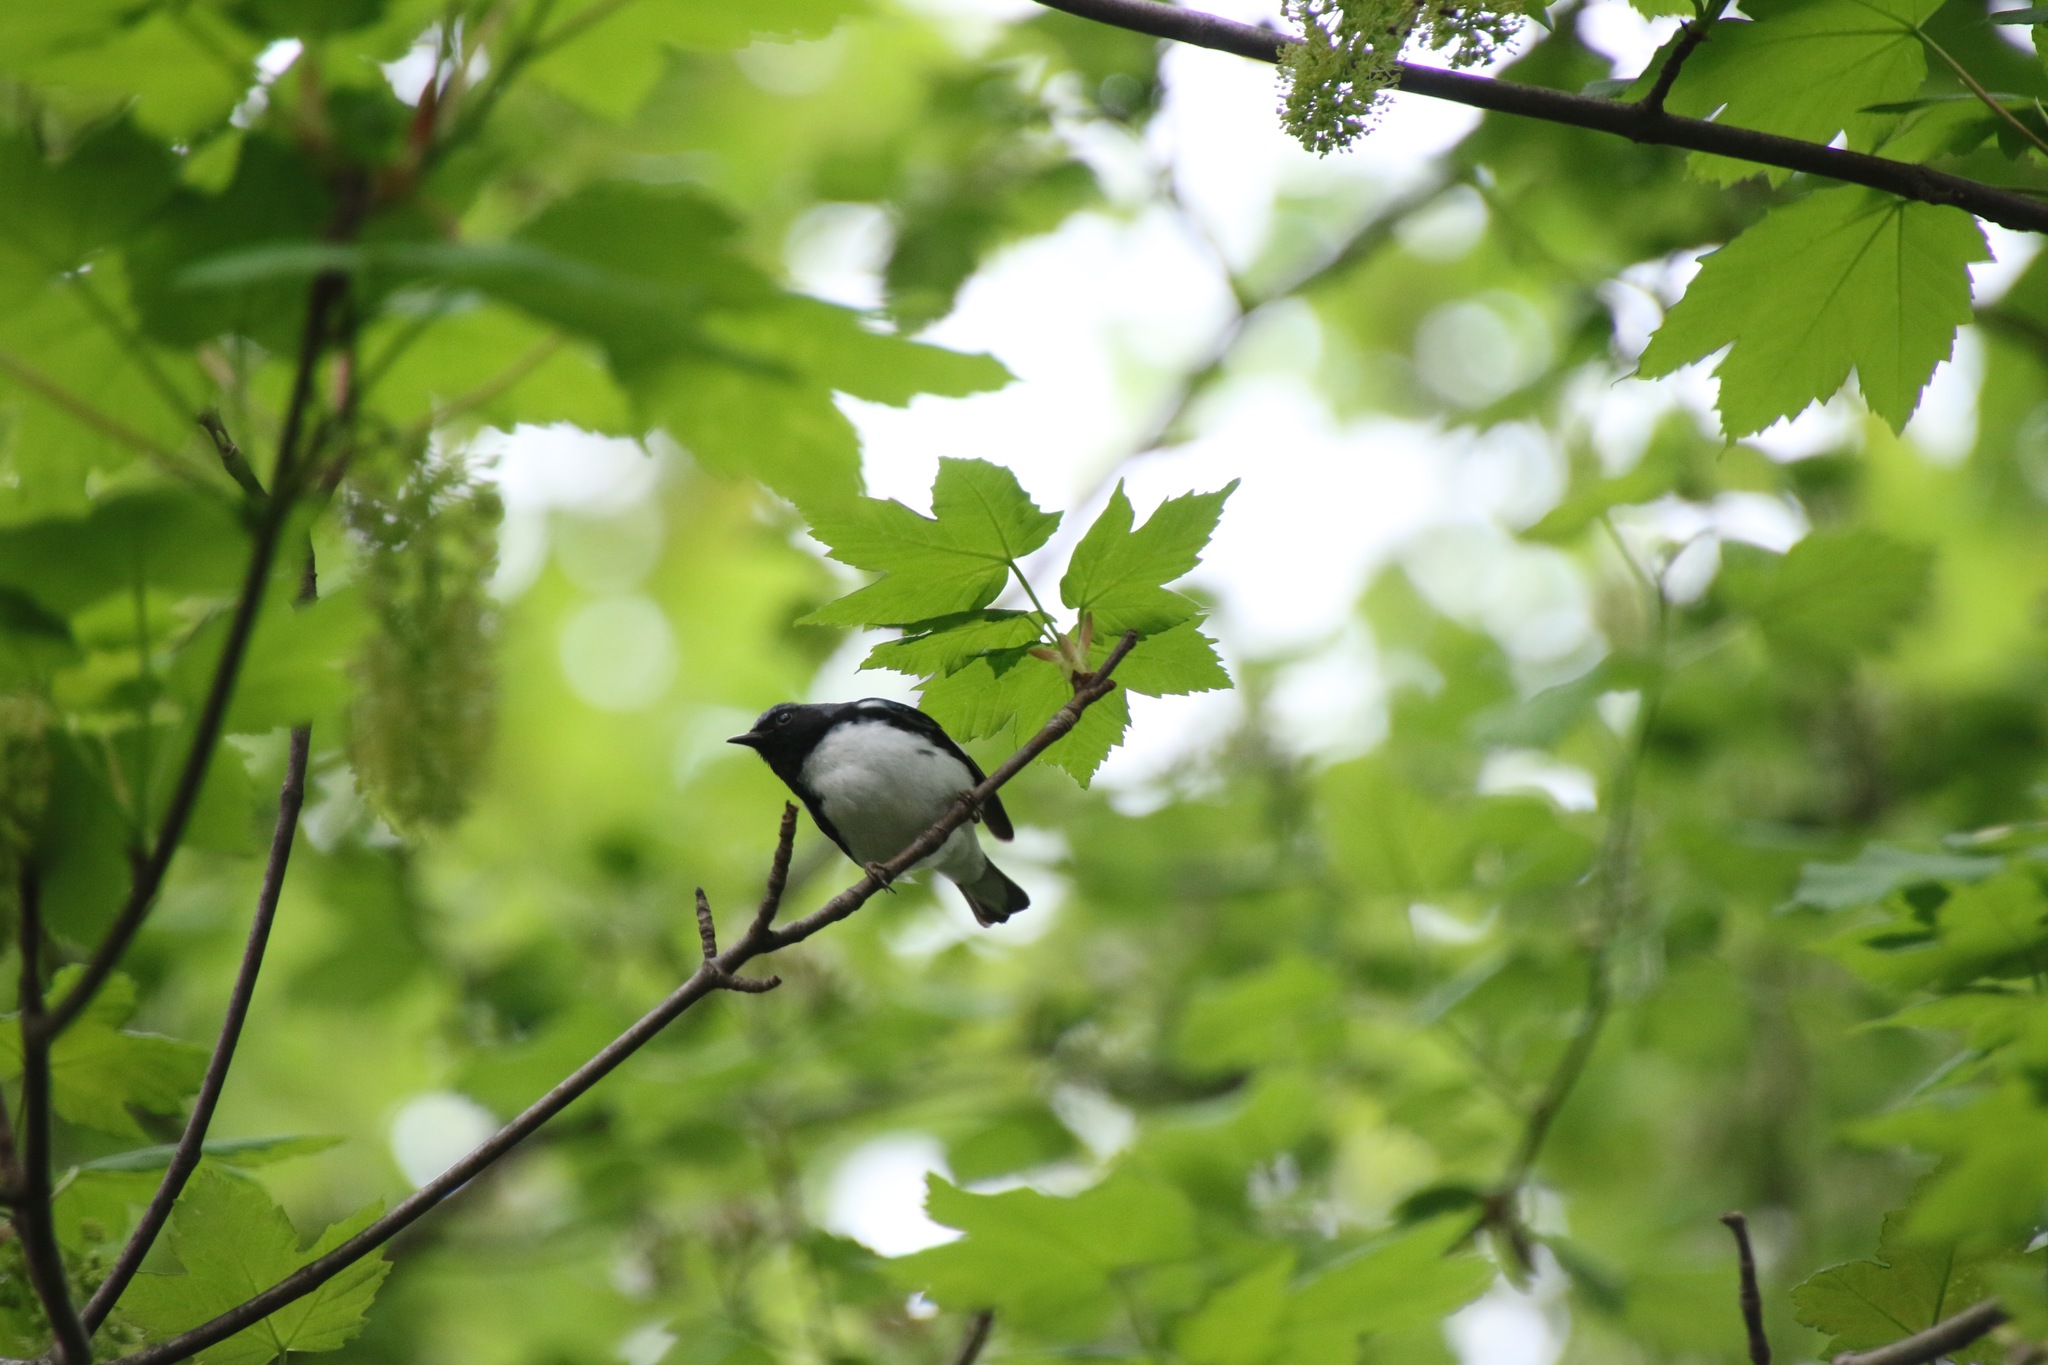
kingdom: Animalia
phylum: Chordata
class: Aves
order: Passeriformes
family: Parulidae
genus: Setophaga
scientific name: Setophaga caerulescens
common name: Black-throated blue warbler
